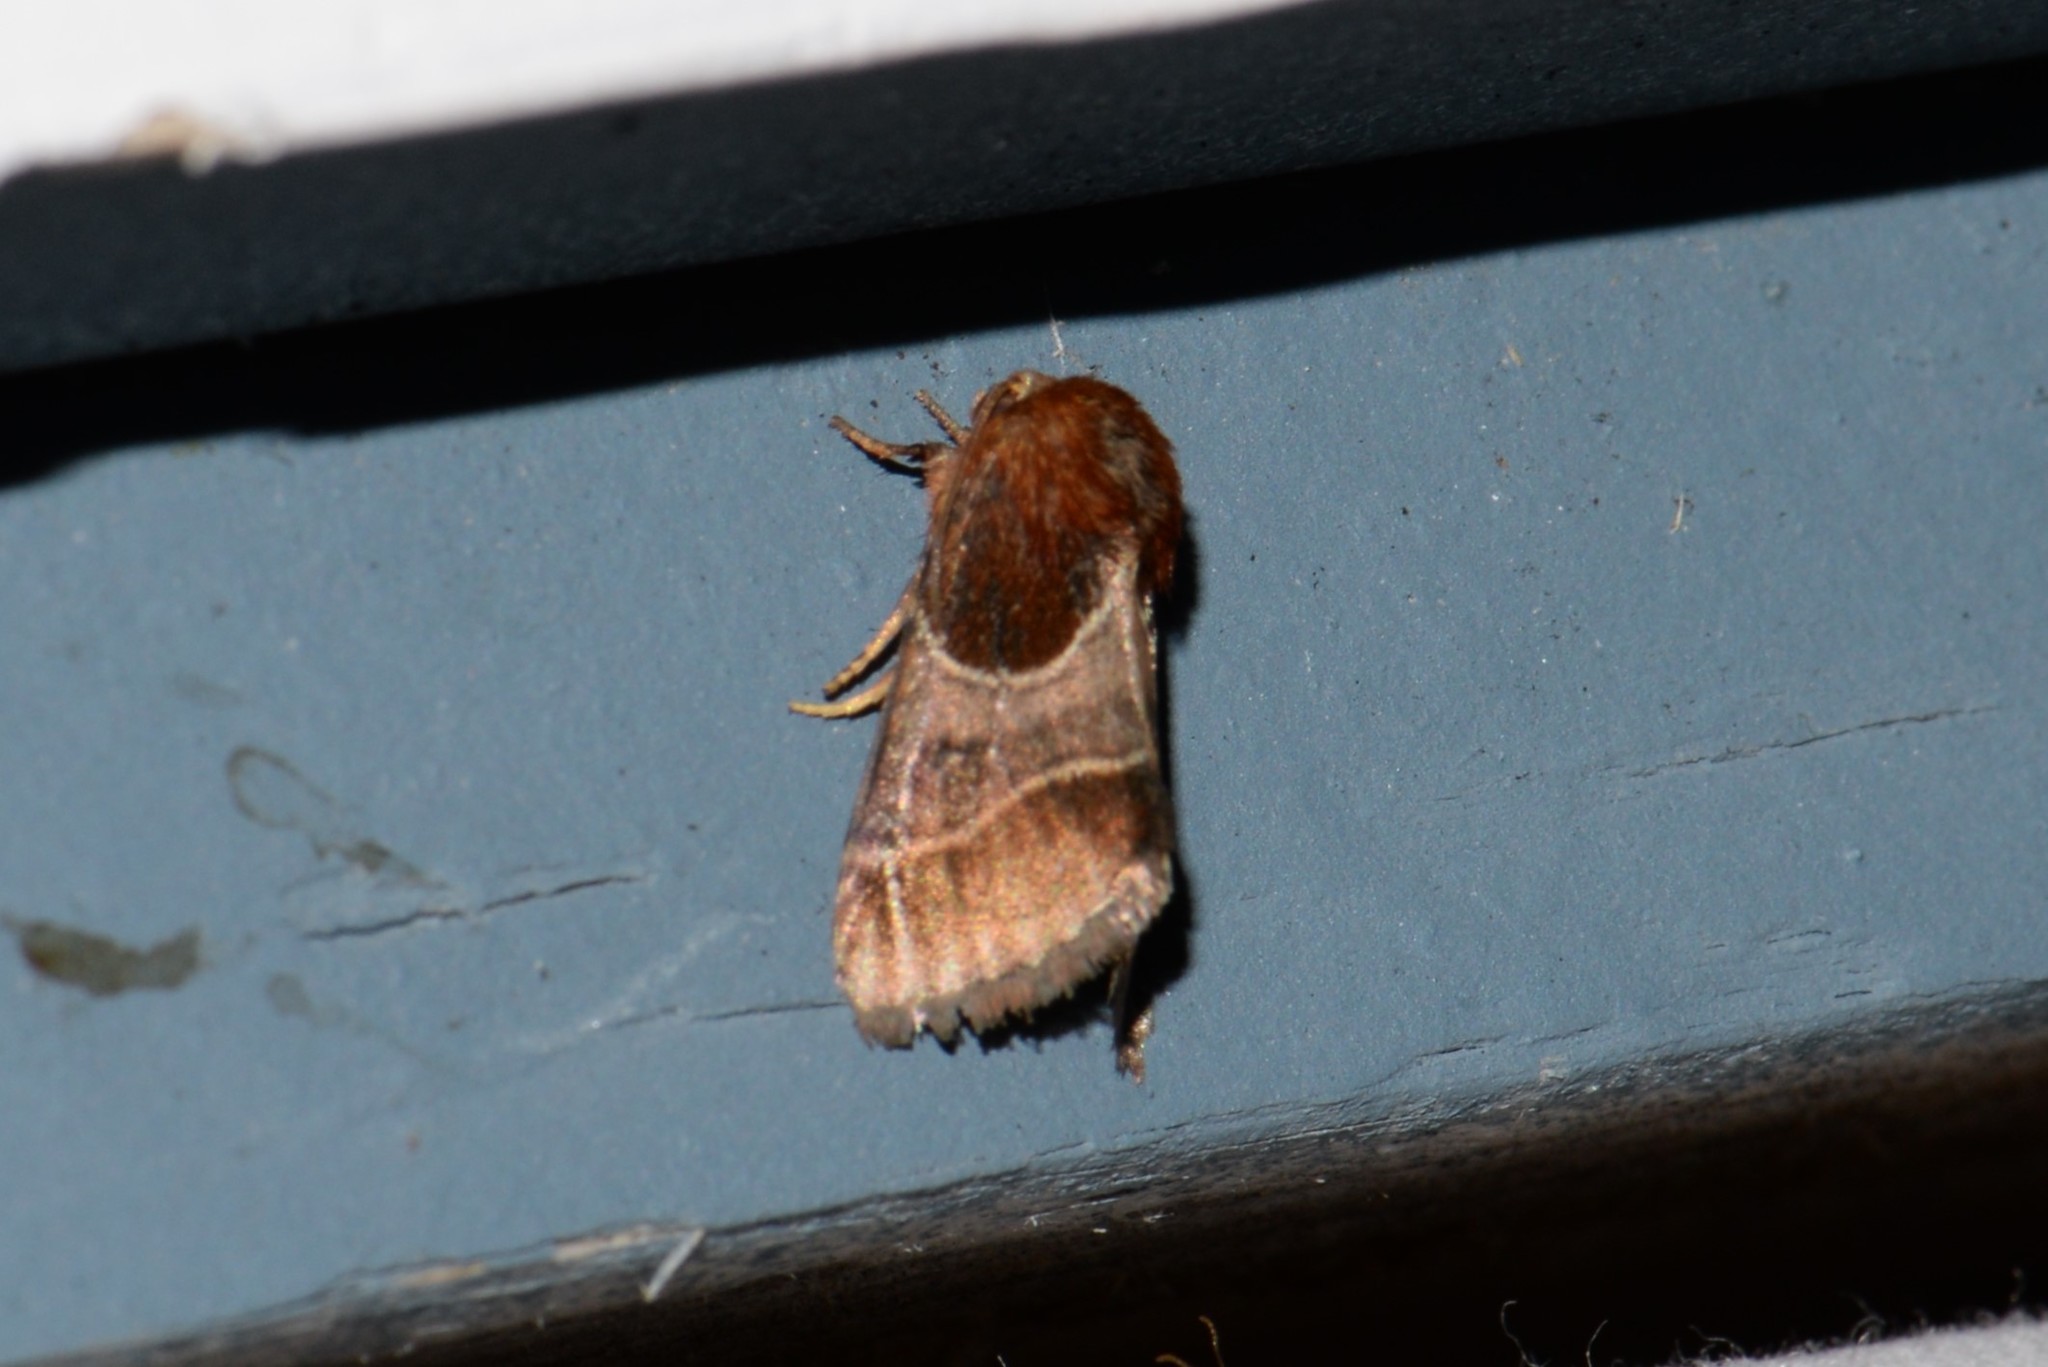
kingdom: Animalia
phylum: Arthropoda
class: Insecta
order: Lepidoptera
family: Noctuidae
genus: Schinia
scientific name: Schinia arcigera
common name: Arcigera flower moth
